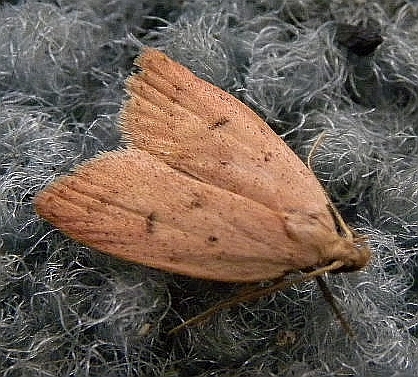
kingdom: Animalia
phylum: Arthropoda
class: Insecta
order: Lepidoptera
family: Peleopodidae
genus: Machimia
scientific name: Machimia tentoriferella
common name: Gold-striped leaftier moth
